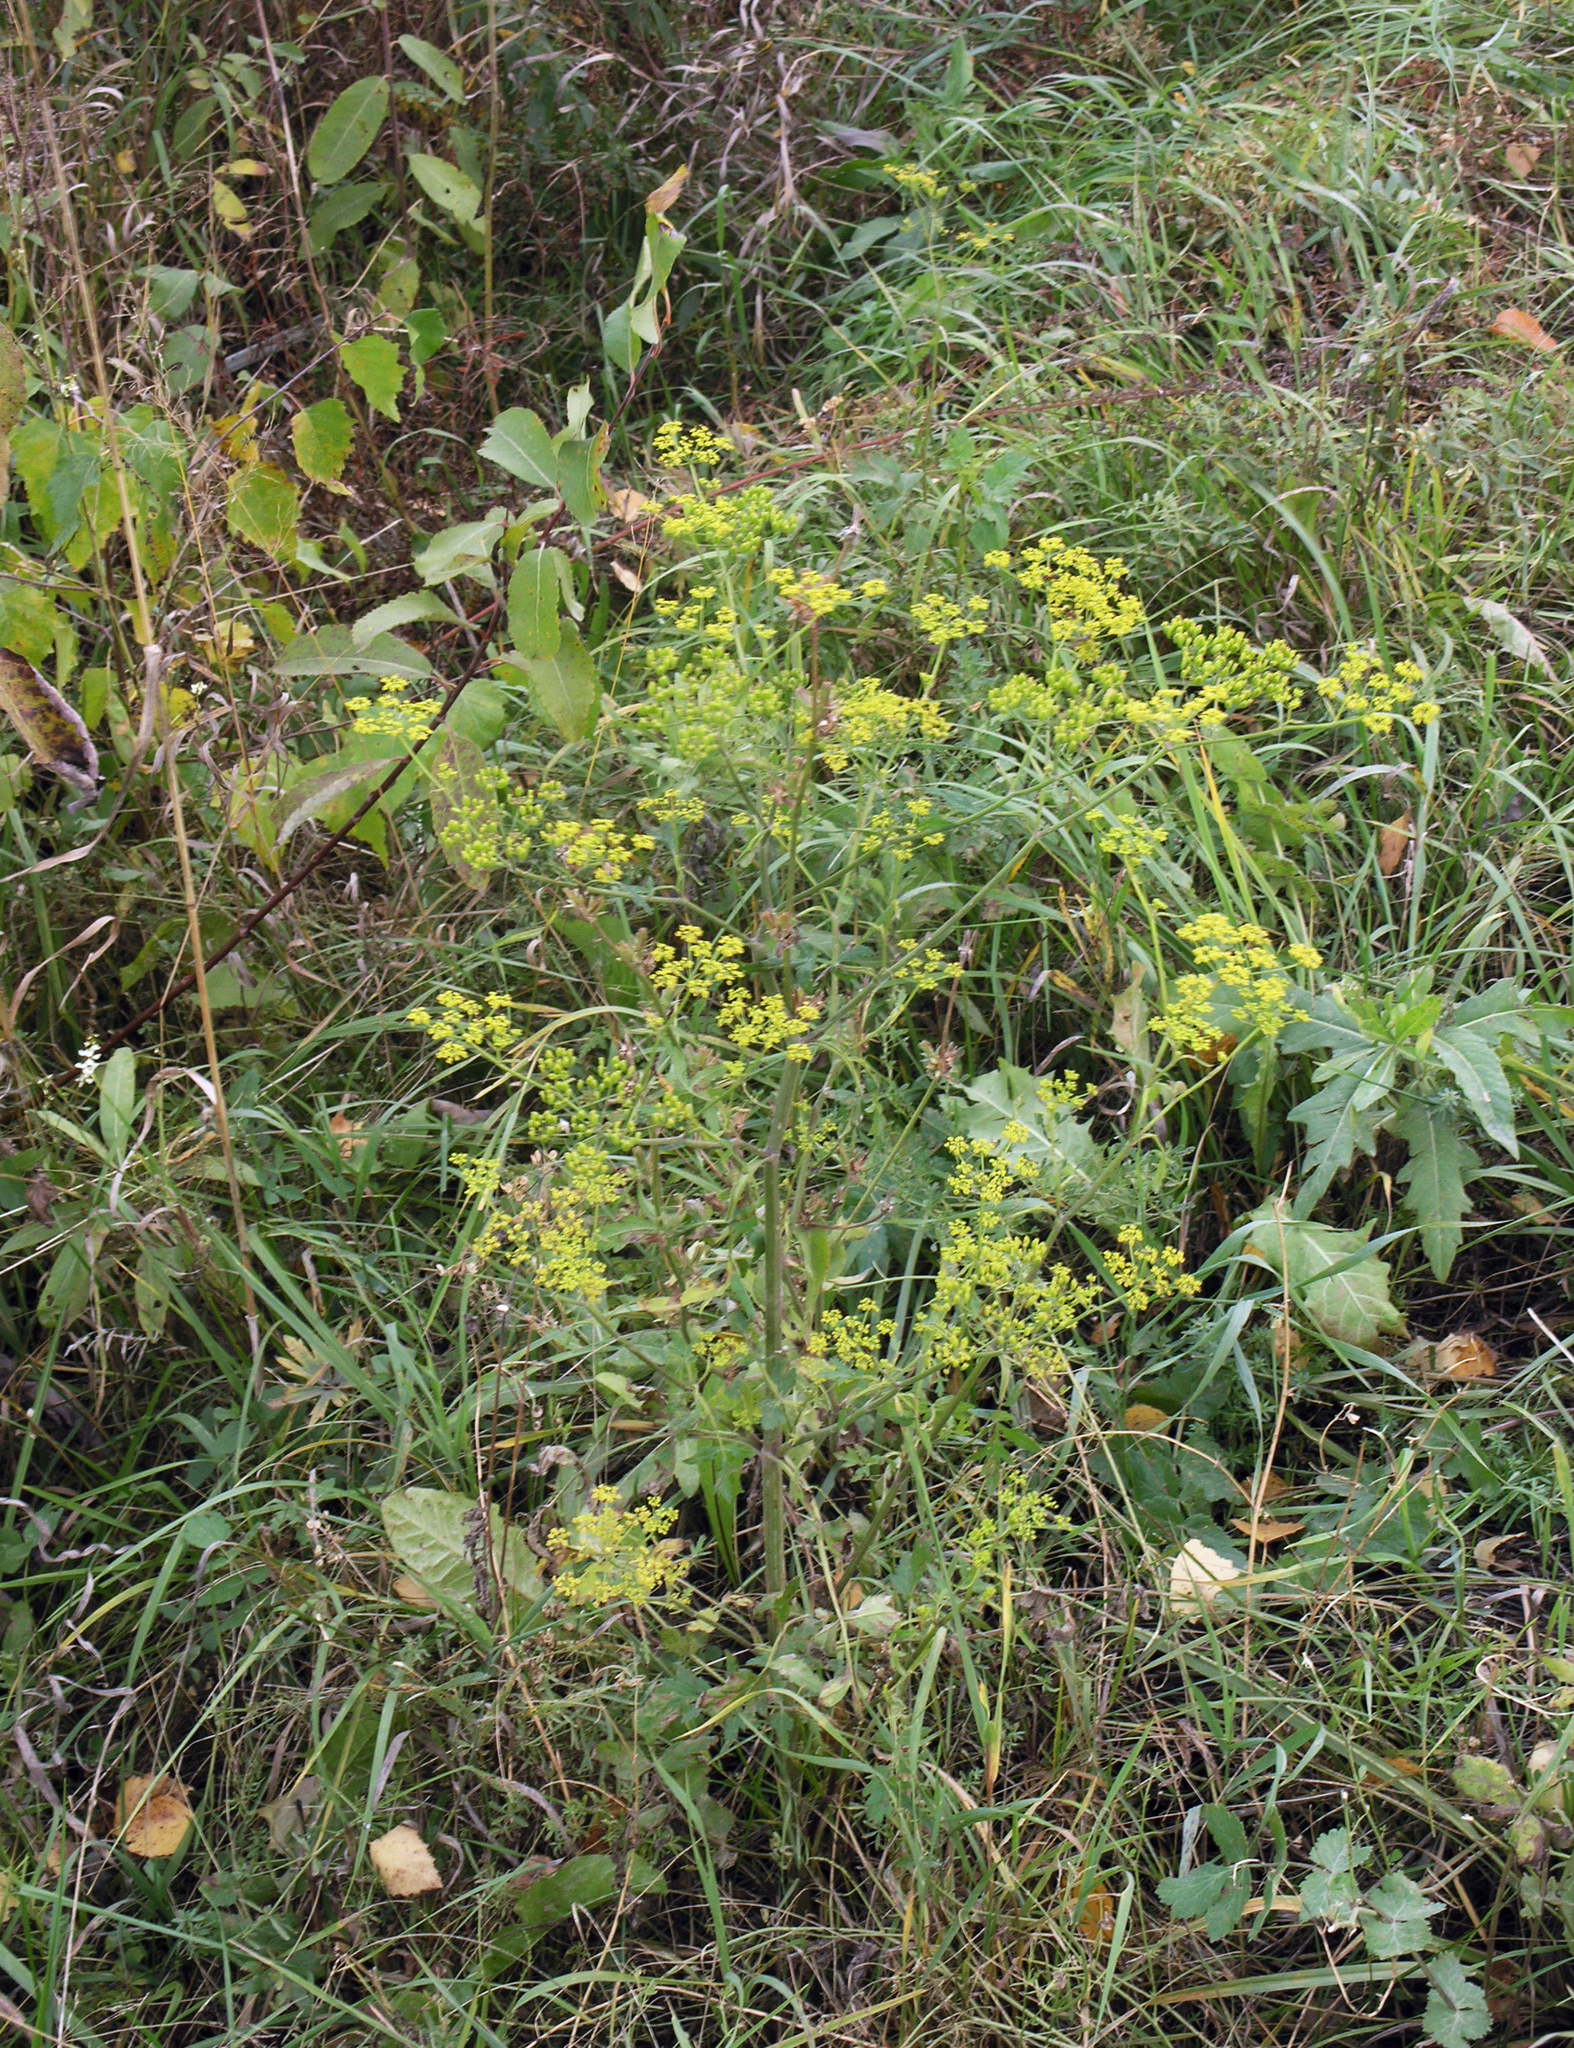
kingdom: Plantae
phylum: Tracheophyta
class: Magnoliopsida
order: Apiales
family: Apiaceae
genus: Pastinaca
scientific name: Pastinaca sativa
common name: Wild parsnip
